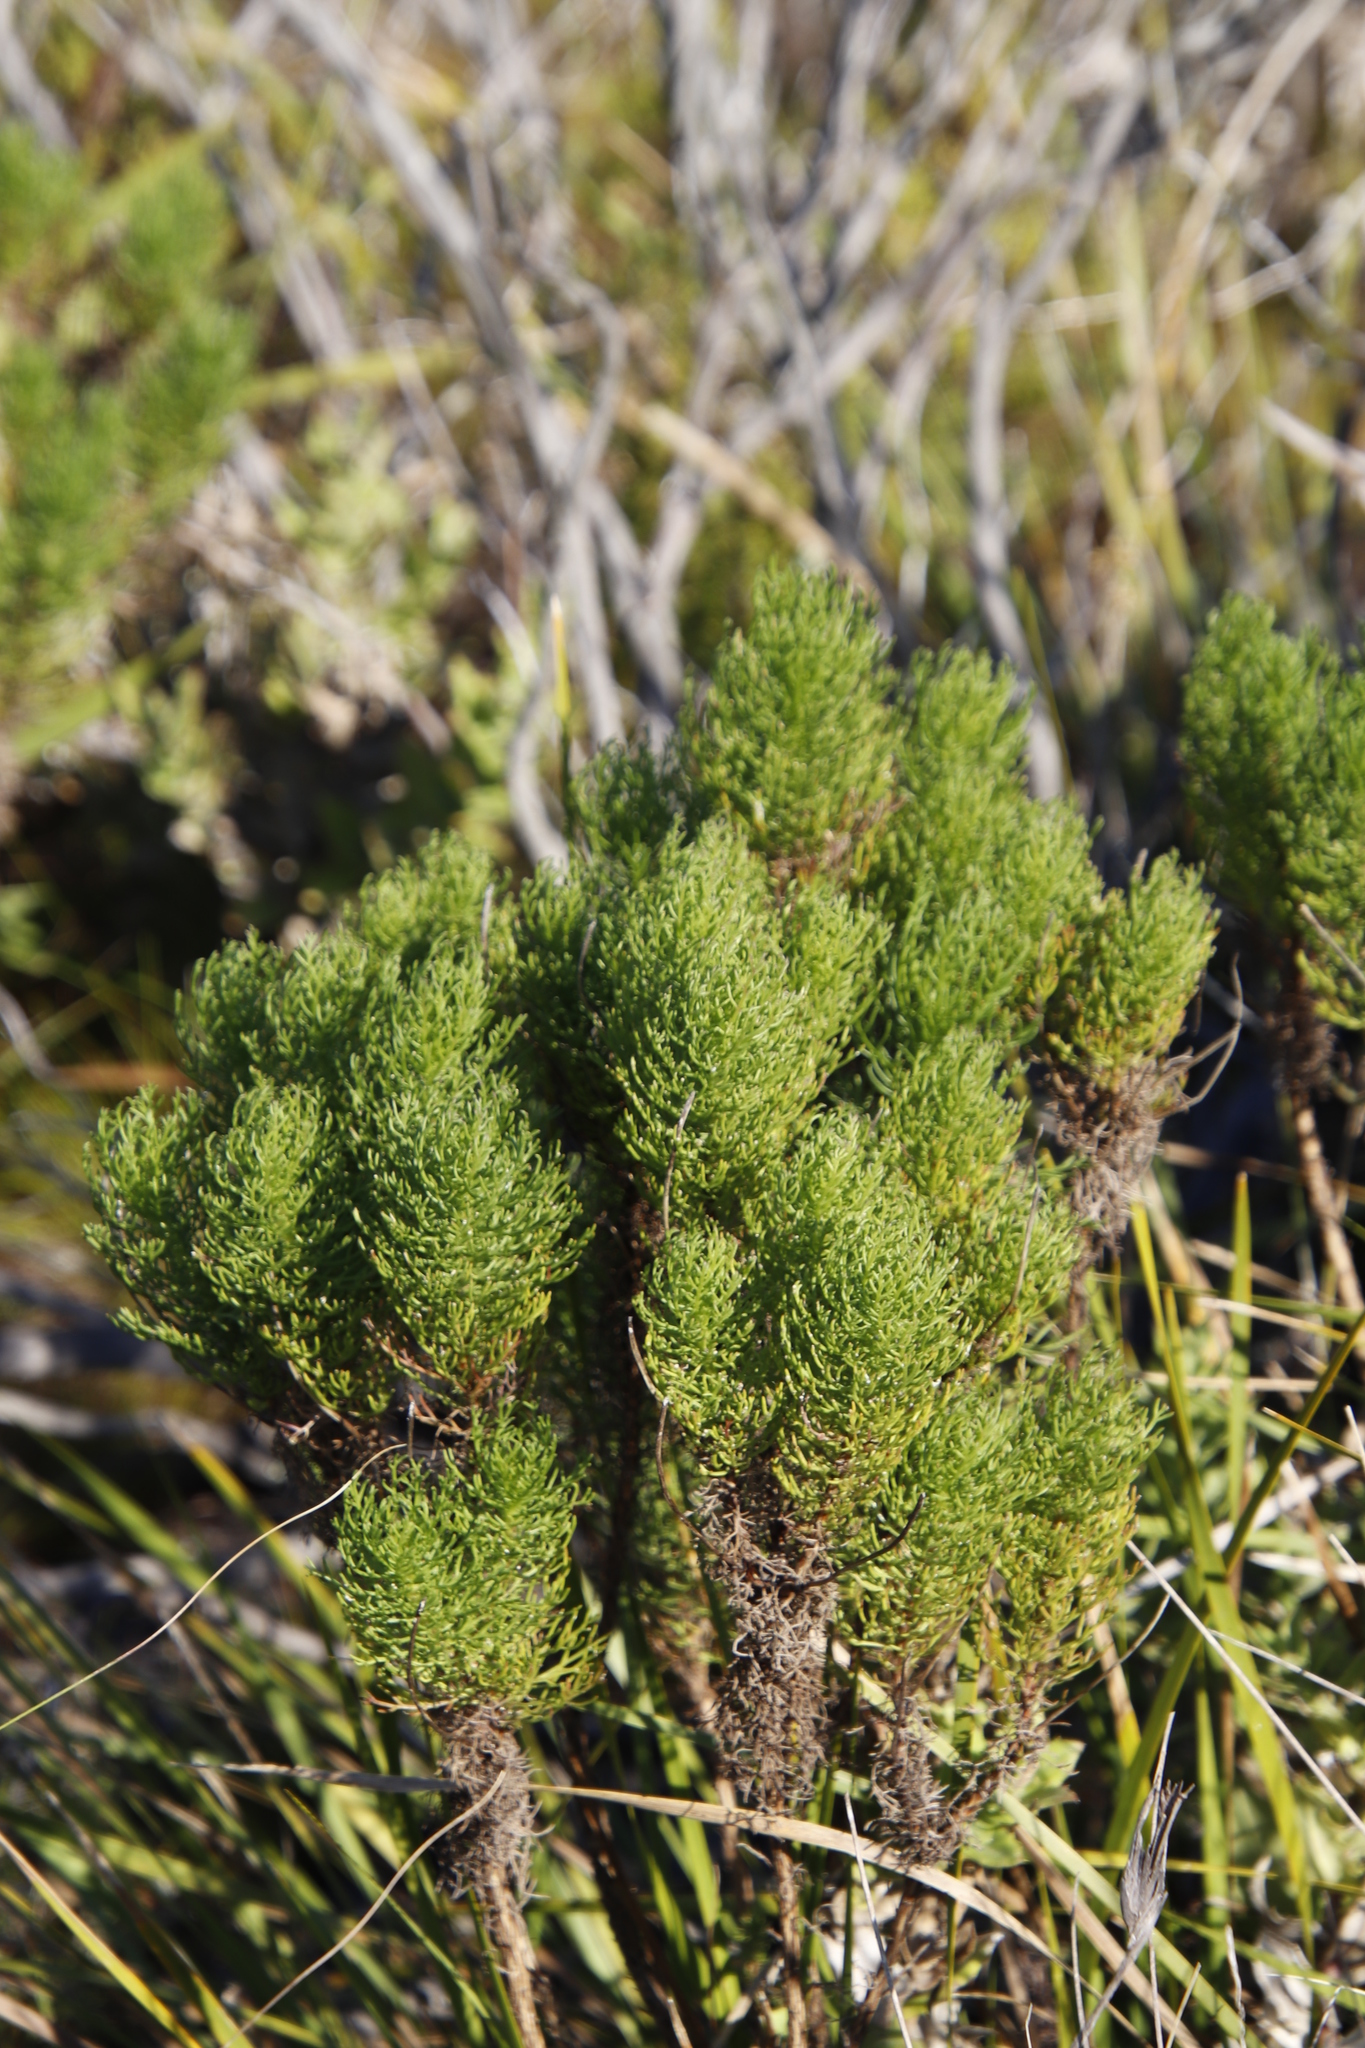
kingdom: Plantae
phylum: Tracheophyta
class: Magnoliopsida
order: Asterales
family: Asteraceae
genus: Euryops
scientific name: Euryops abrotanifolius
